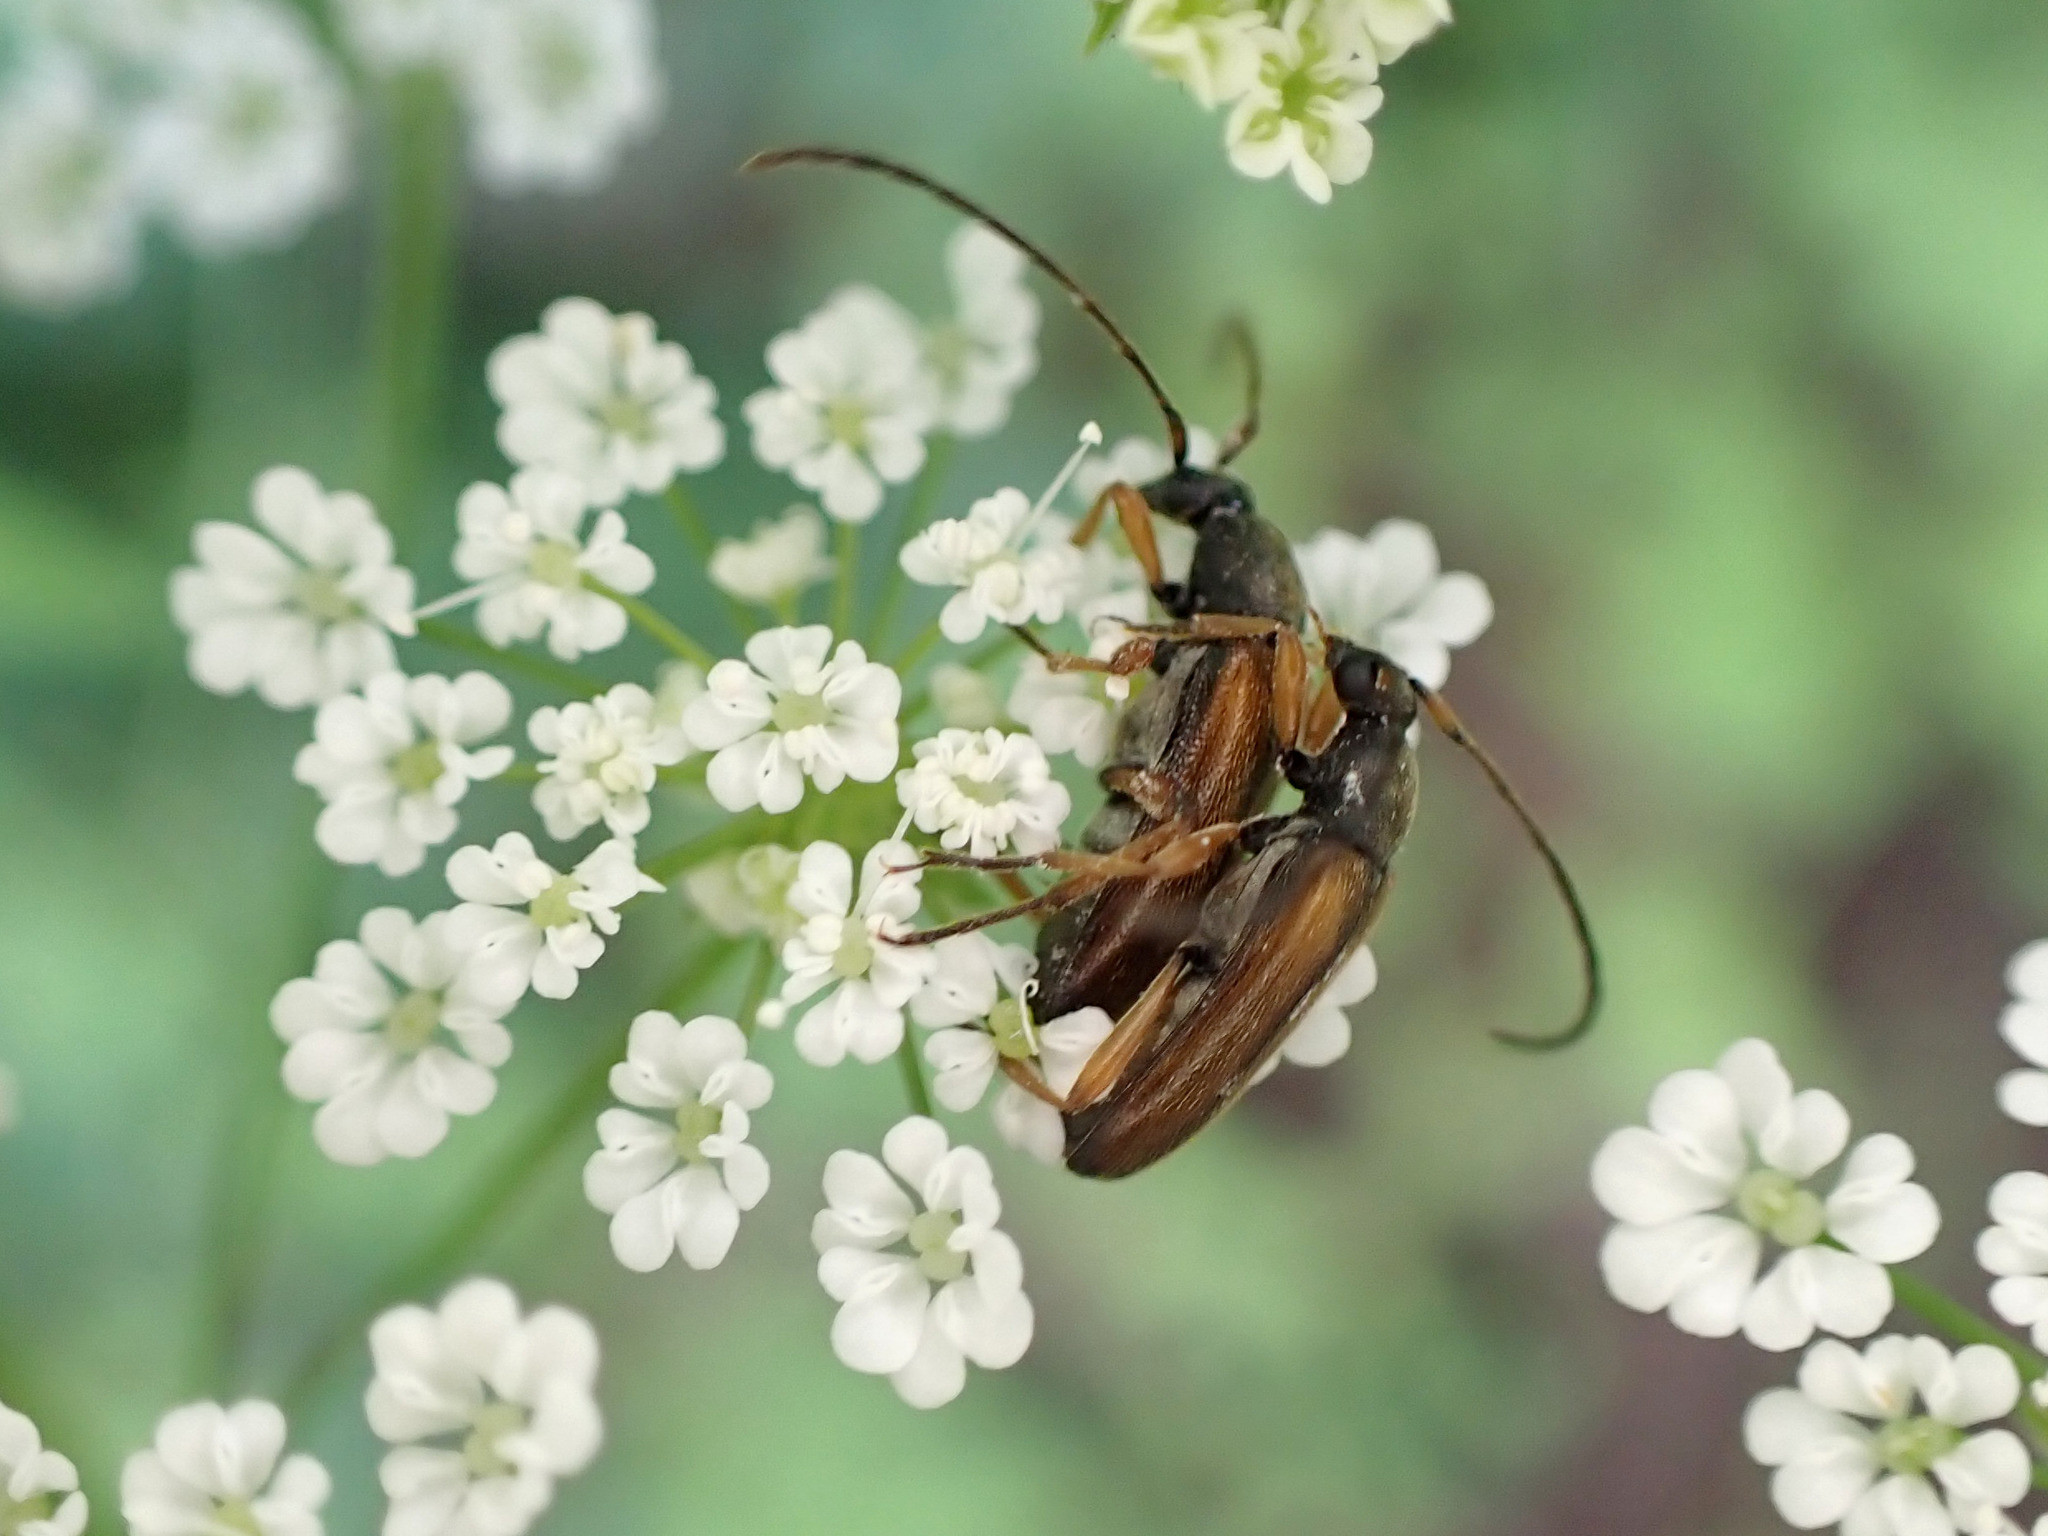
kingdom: Animalia
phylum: Arthropoda
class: Insecta
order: Coleoptera
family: Cerambycidae
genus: Alosterna
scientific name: Alosterna tabacicolor
